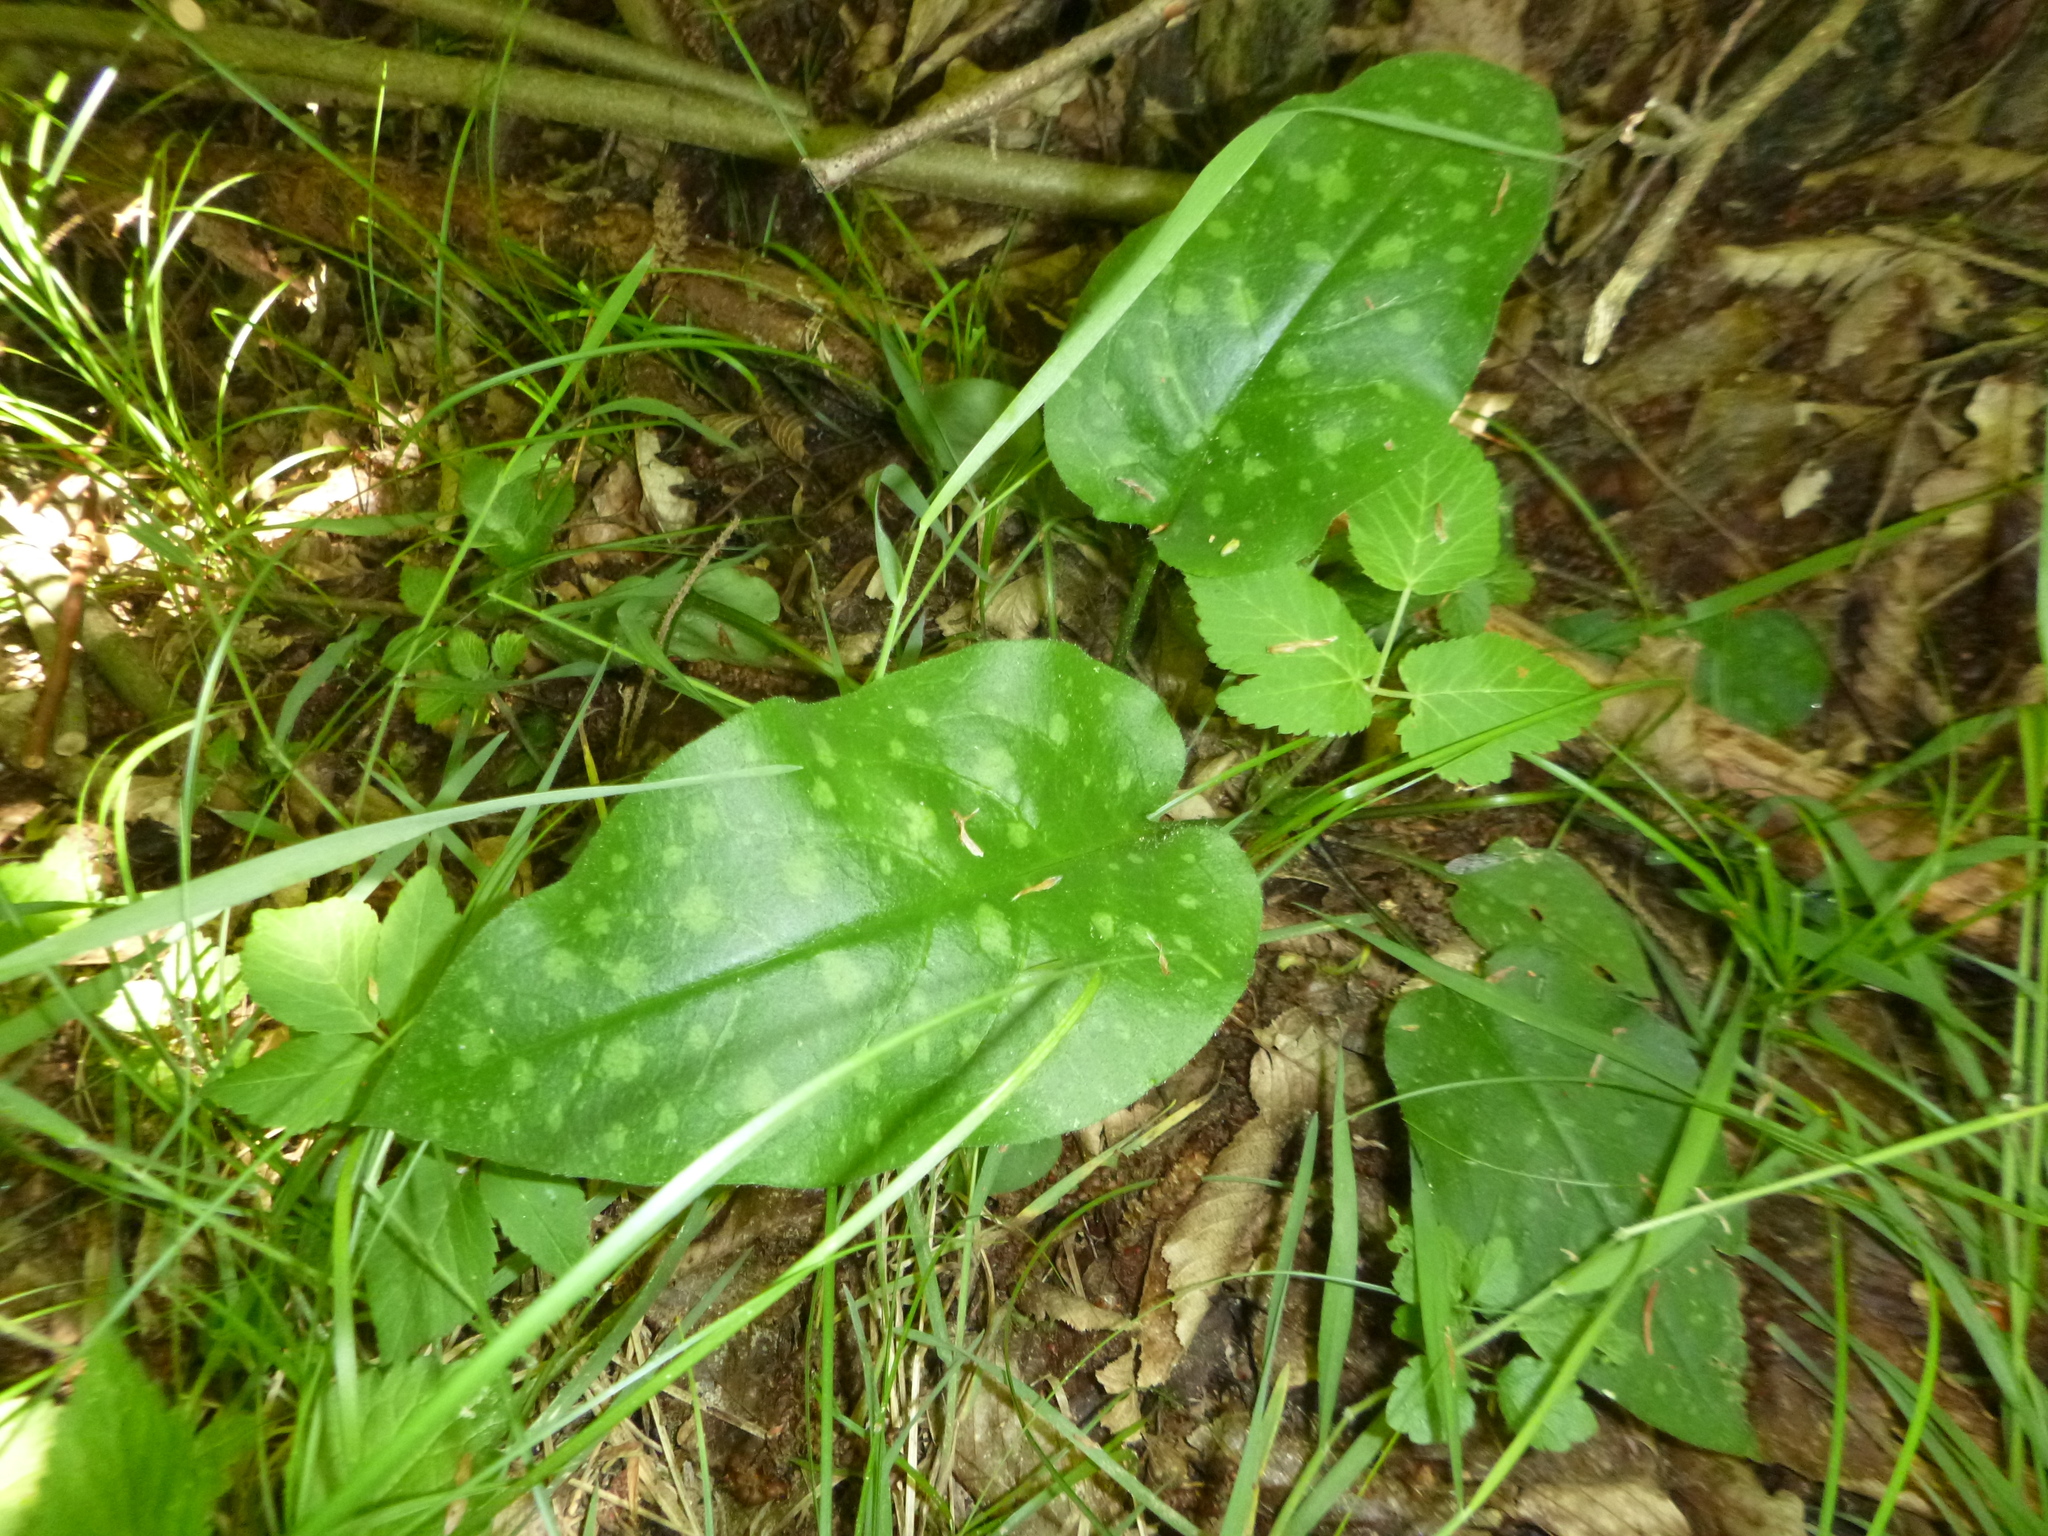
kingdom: Plantae
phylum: Tracheophyta
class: Magnoliopsida
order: Boraginales
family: Boraginaceae
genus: Pulmonaria
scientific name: Pulmonaria officinalis
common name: Lungwort
